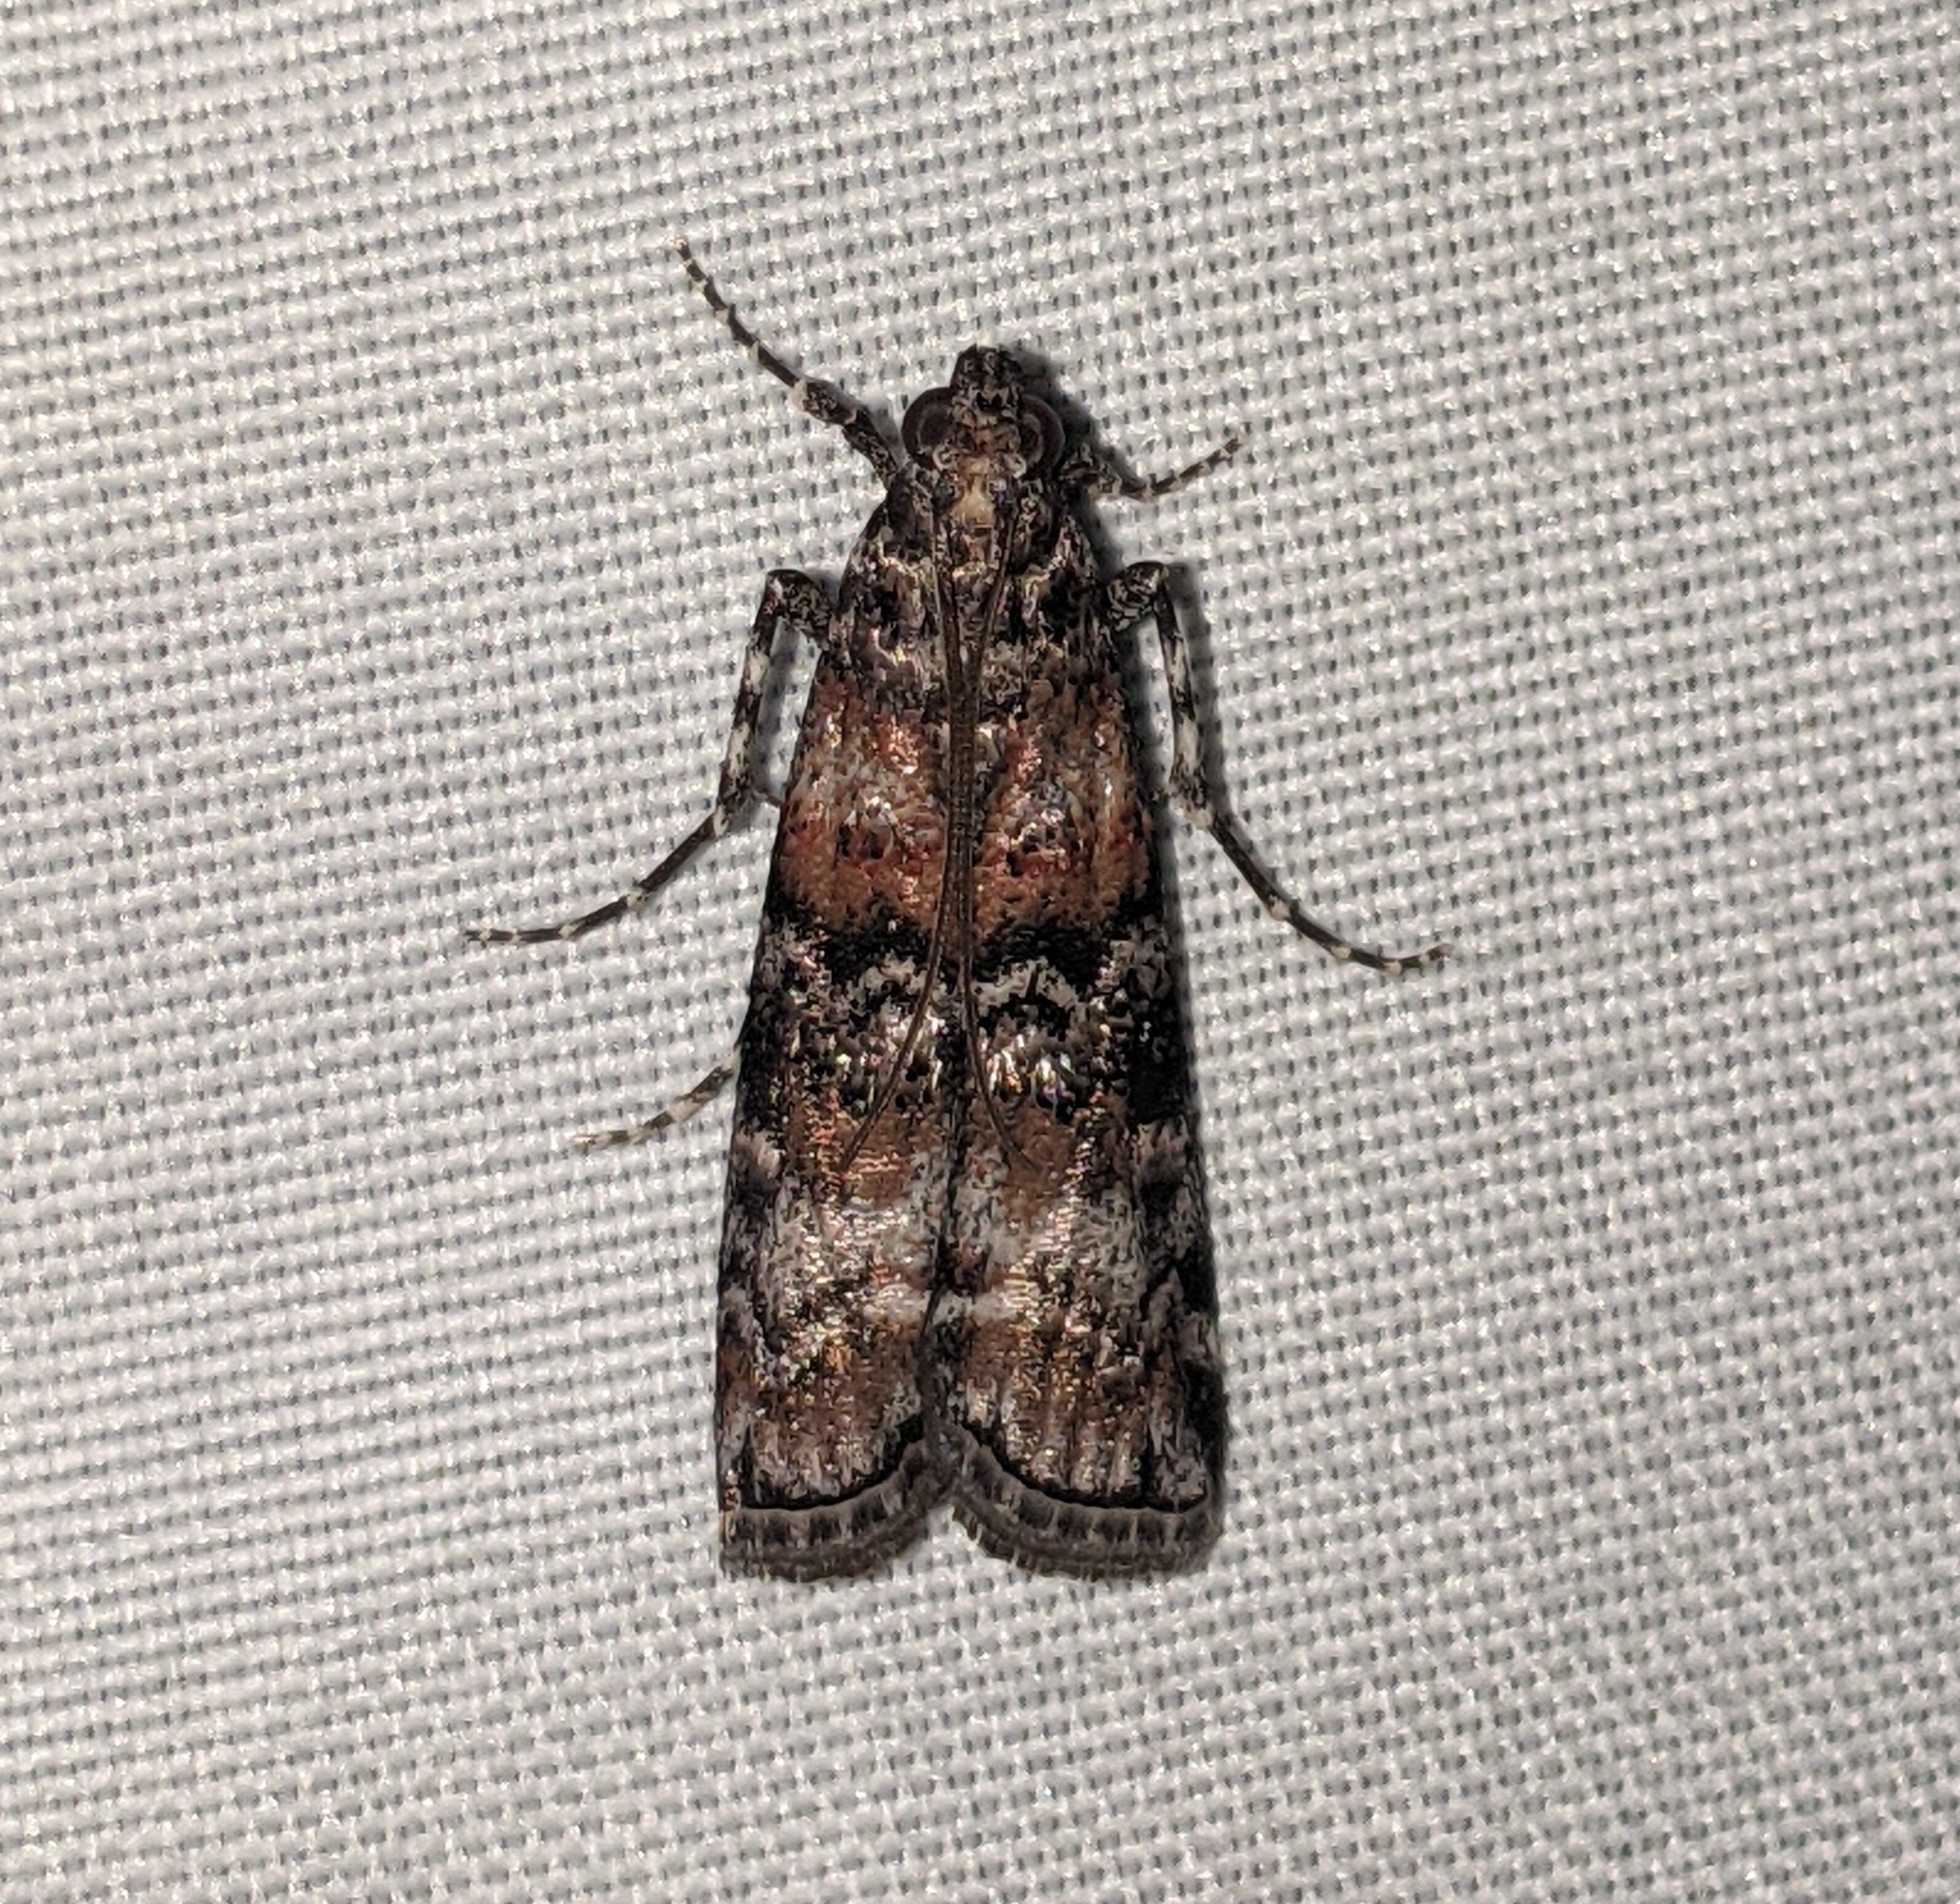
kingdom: Animalia
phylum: Arthropoda
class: Insecta
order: Lepidoptera
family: Pyralidae
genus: Dioryctria
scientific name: Dioryctria banksiella
